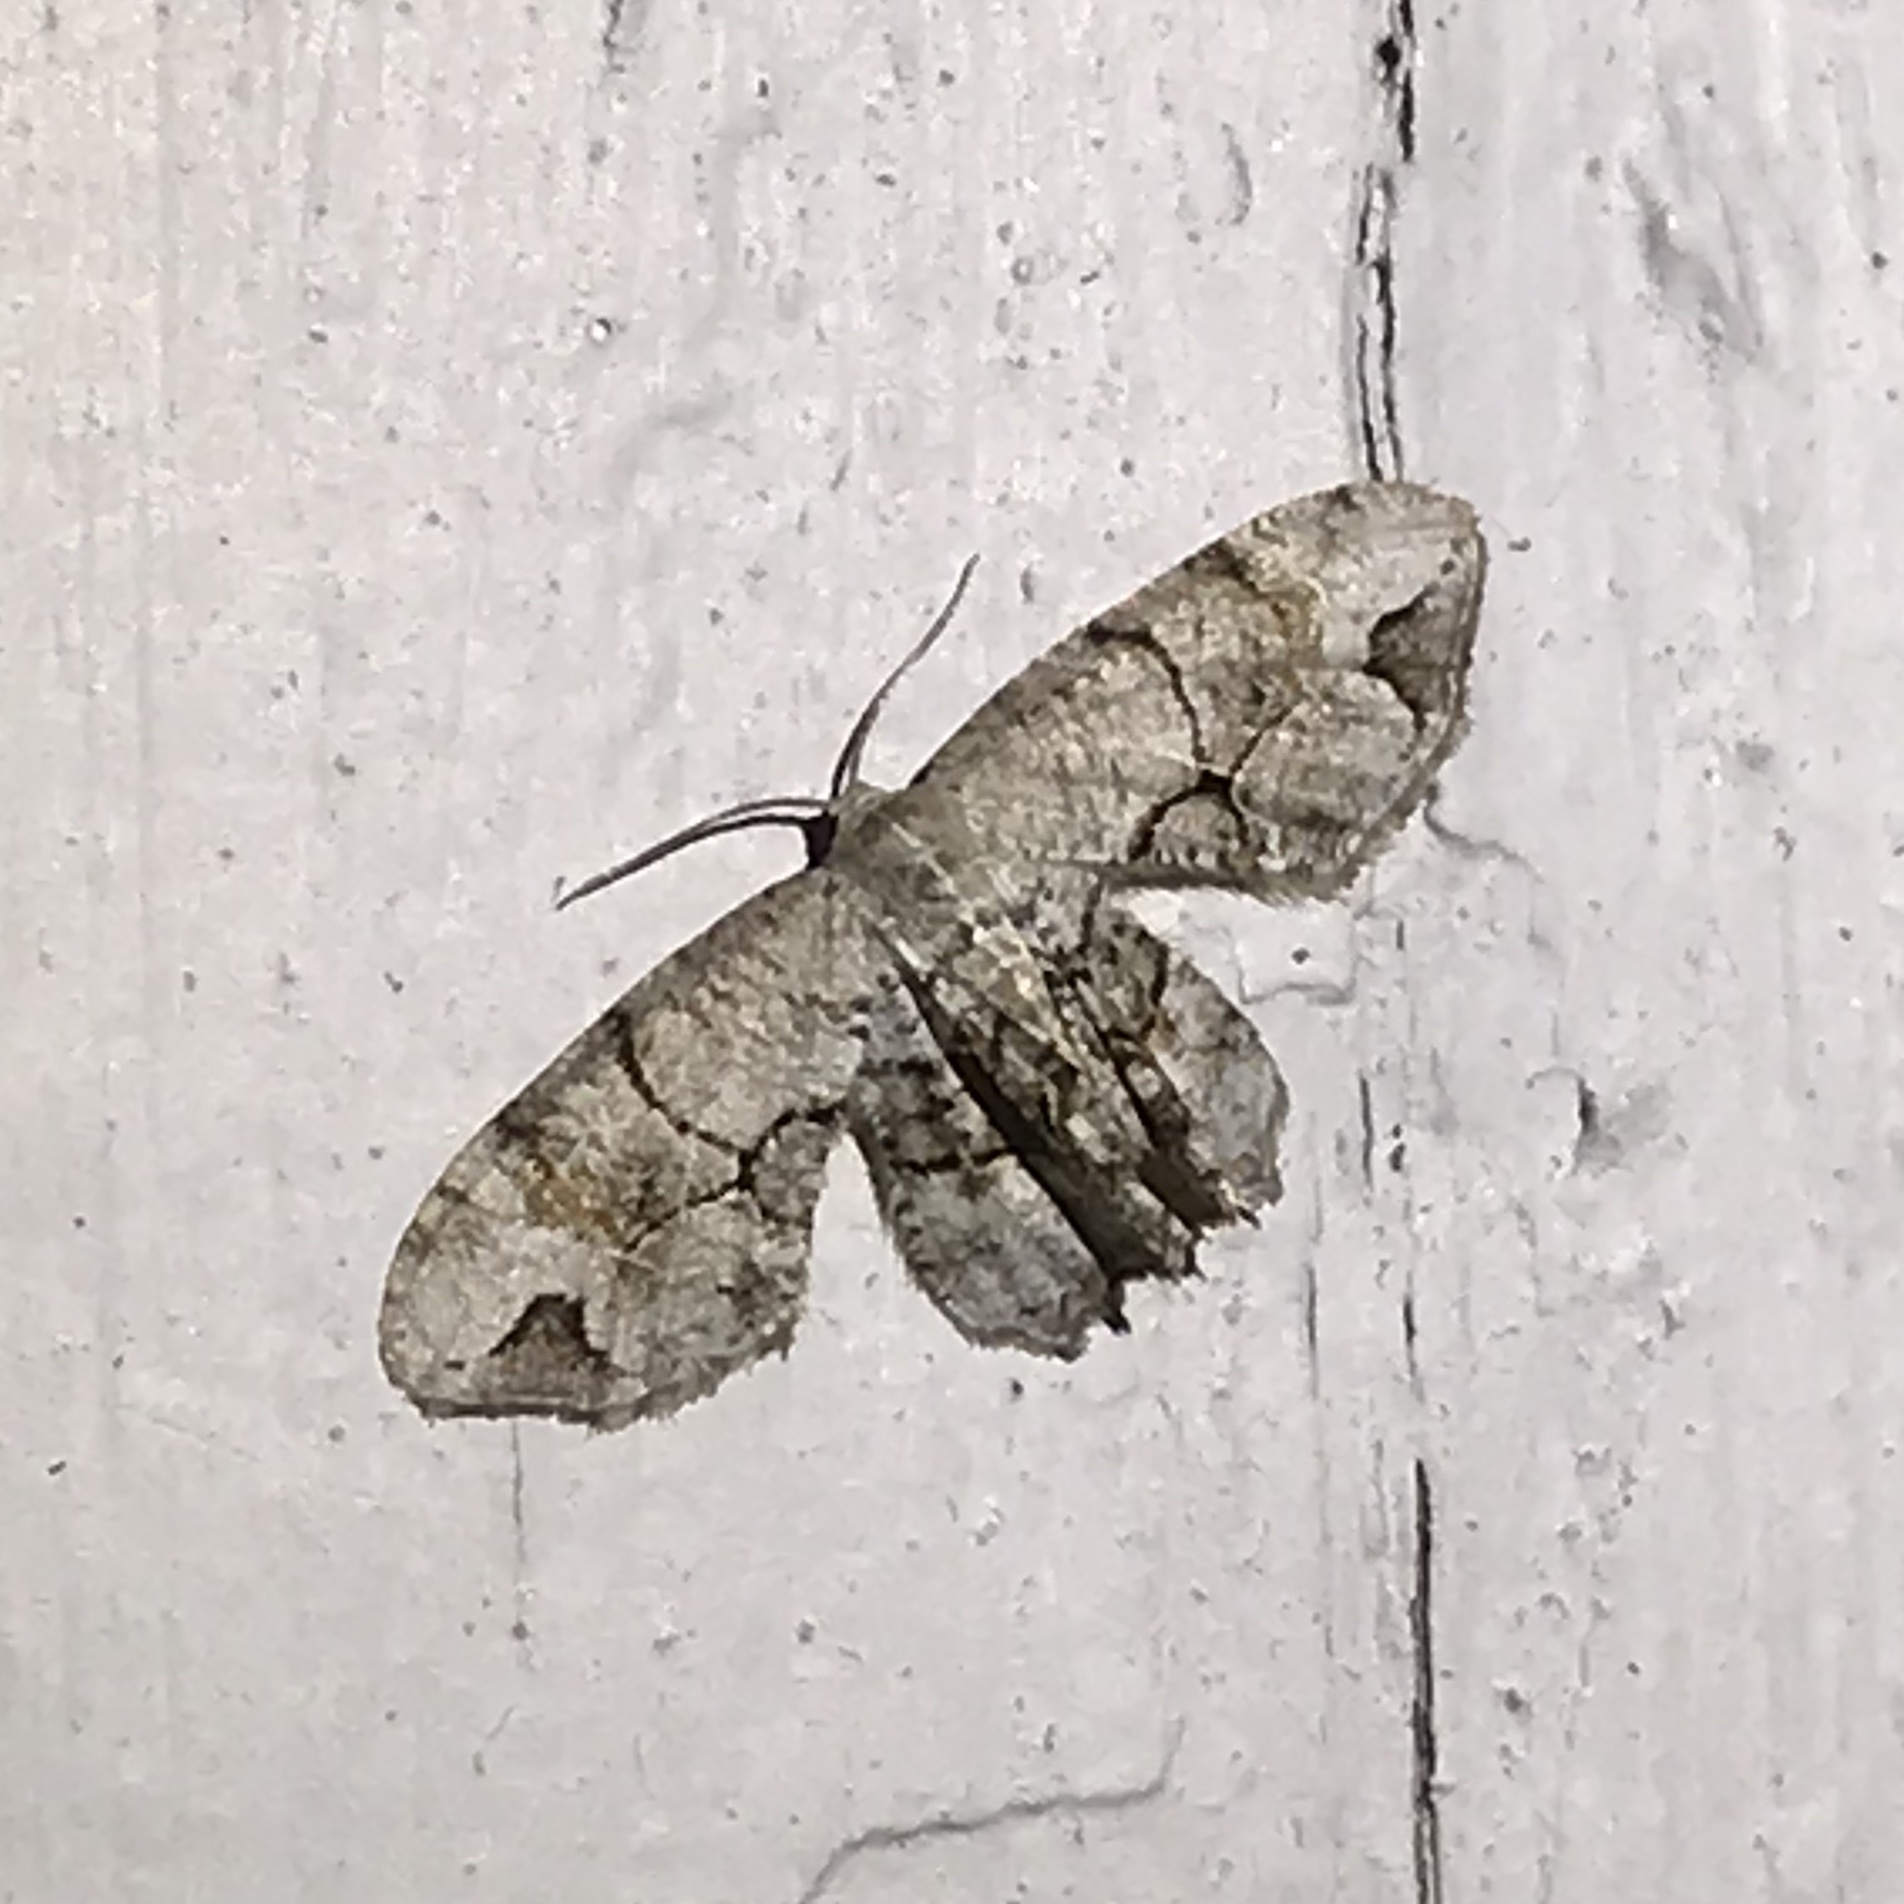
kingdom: Animalia
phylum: Arthropoda
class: Insecta
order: Lepidoptera
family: Uraniidae
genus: Epiplema
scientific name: Epiplema Callizzia amorata
